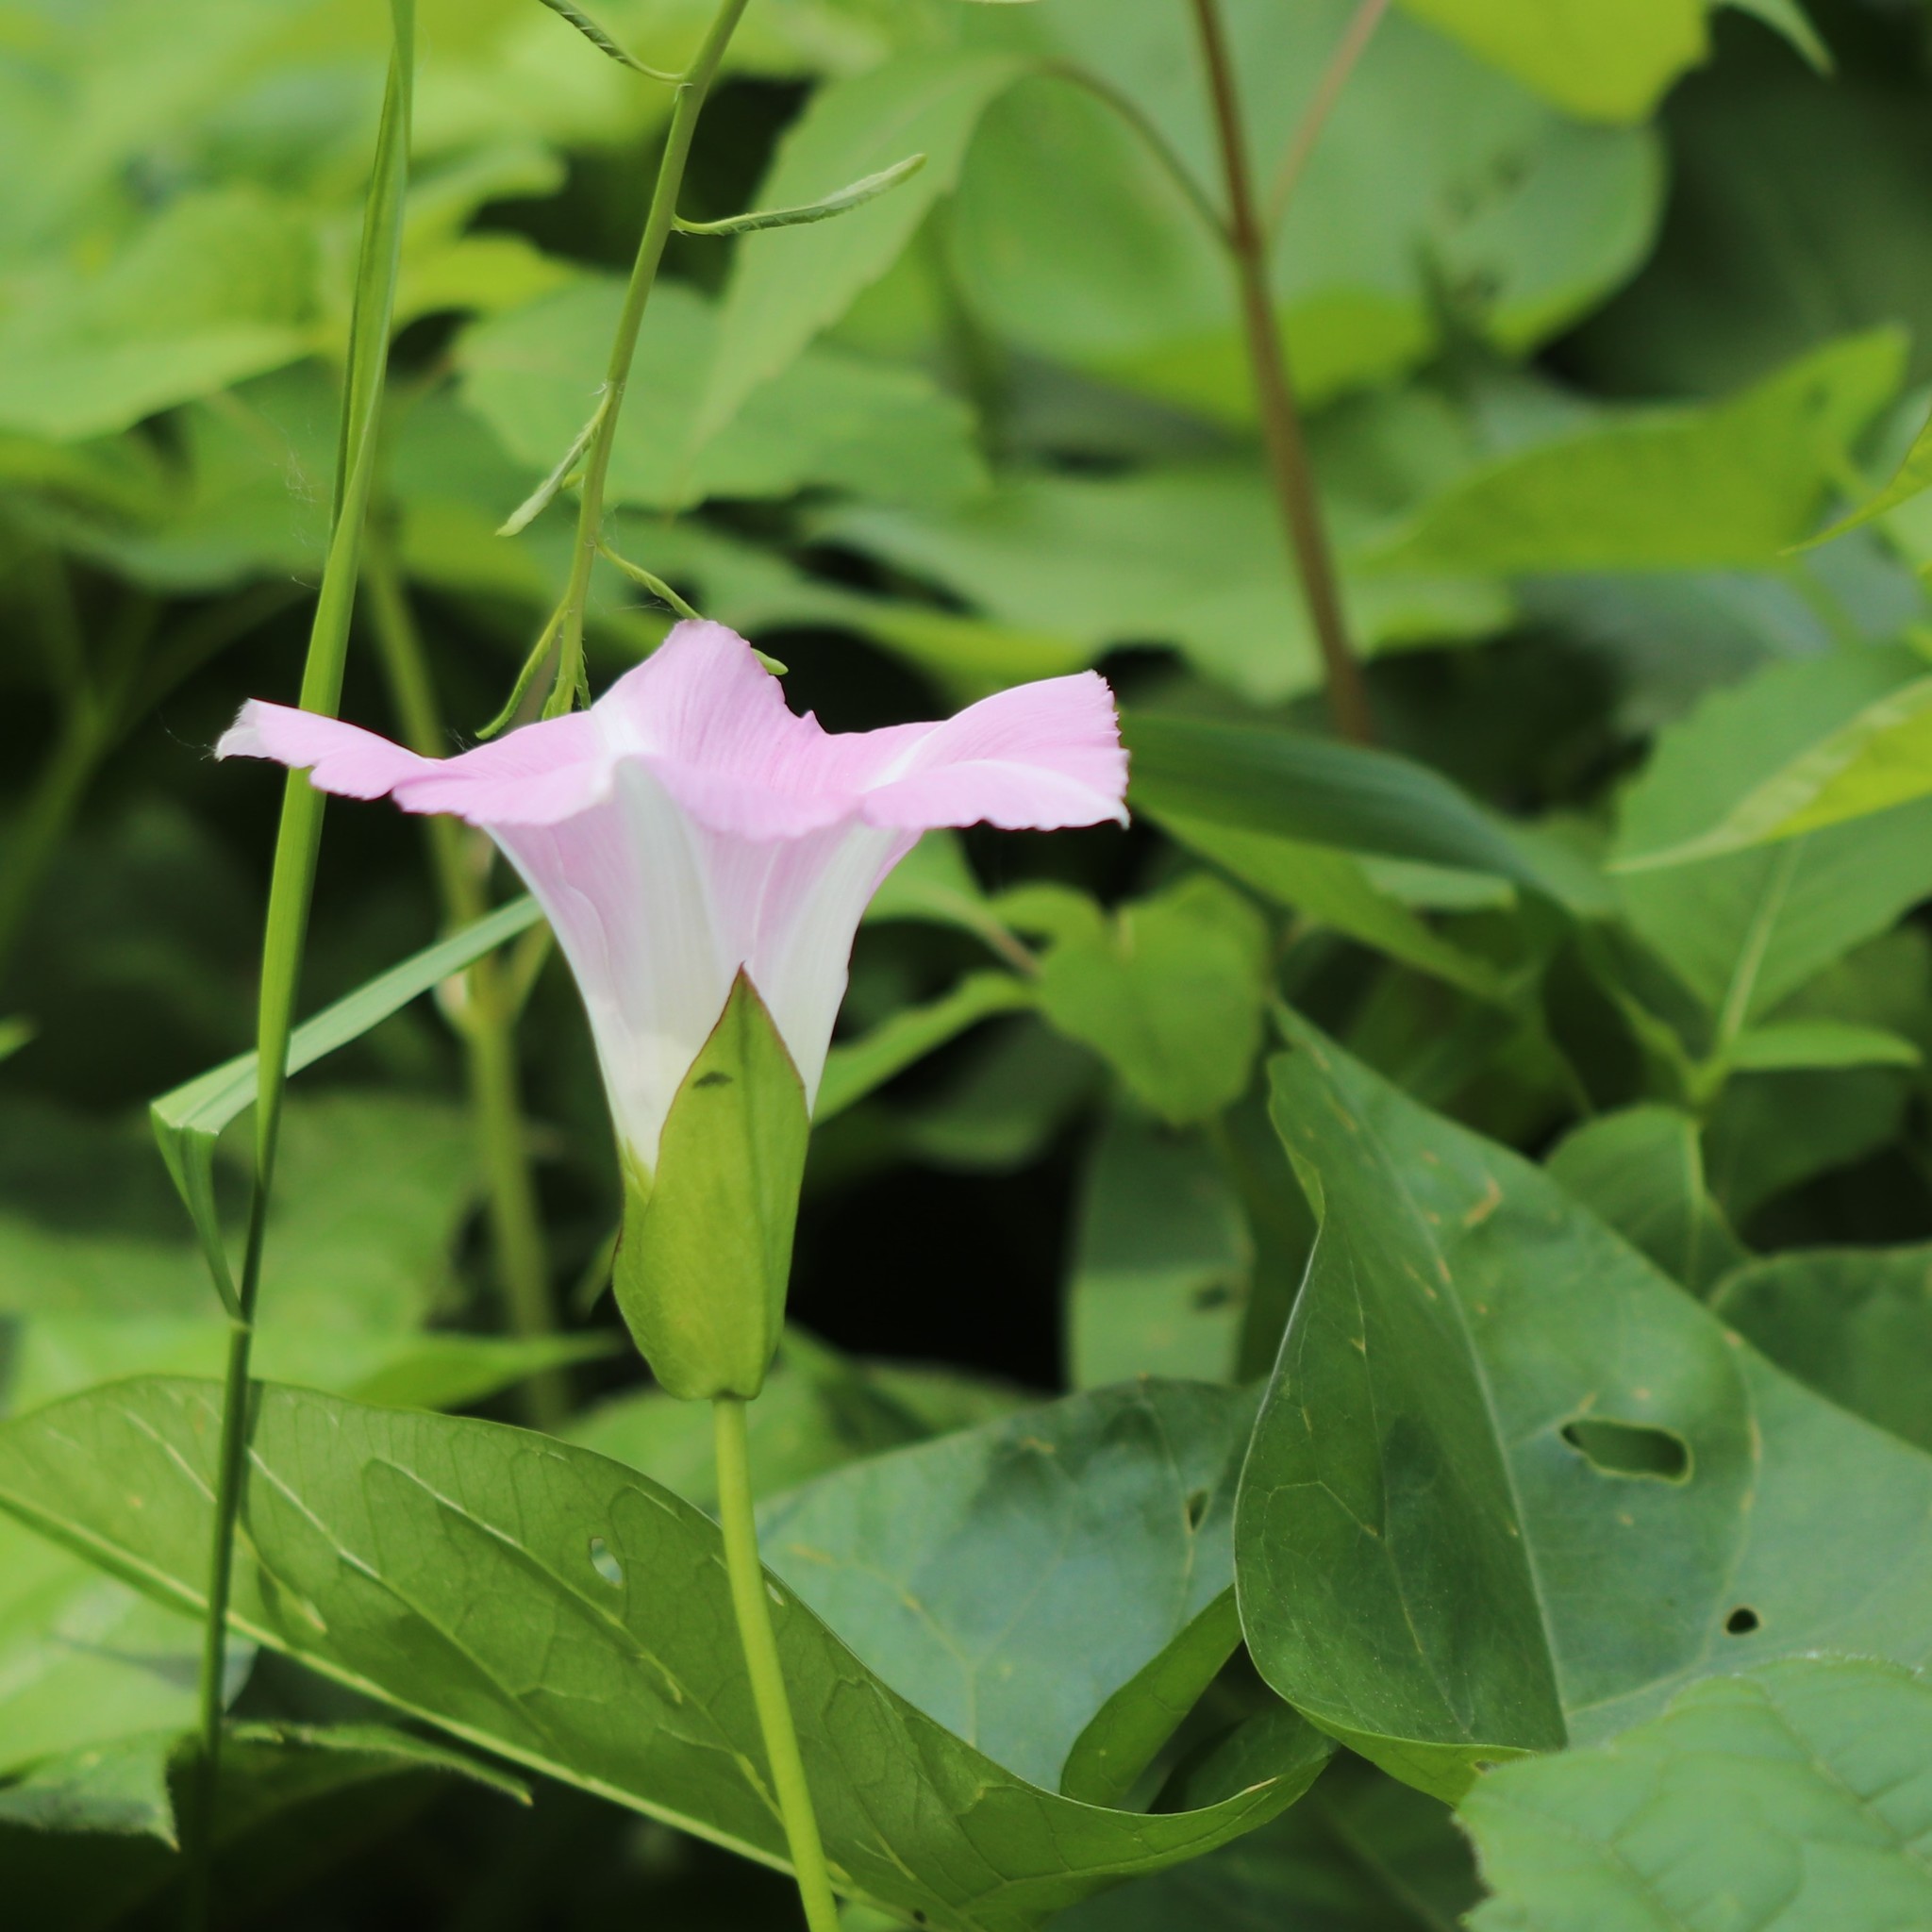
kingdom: Plantae
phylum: Tracheophyta
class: Magnoliopsida
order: Solanales
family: Convolvulaceae
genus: Calystegia
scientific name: Calystegia sepium
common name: Hedge bindweed
